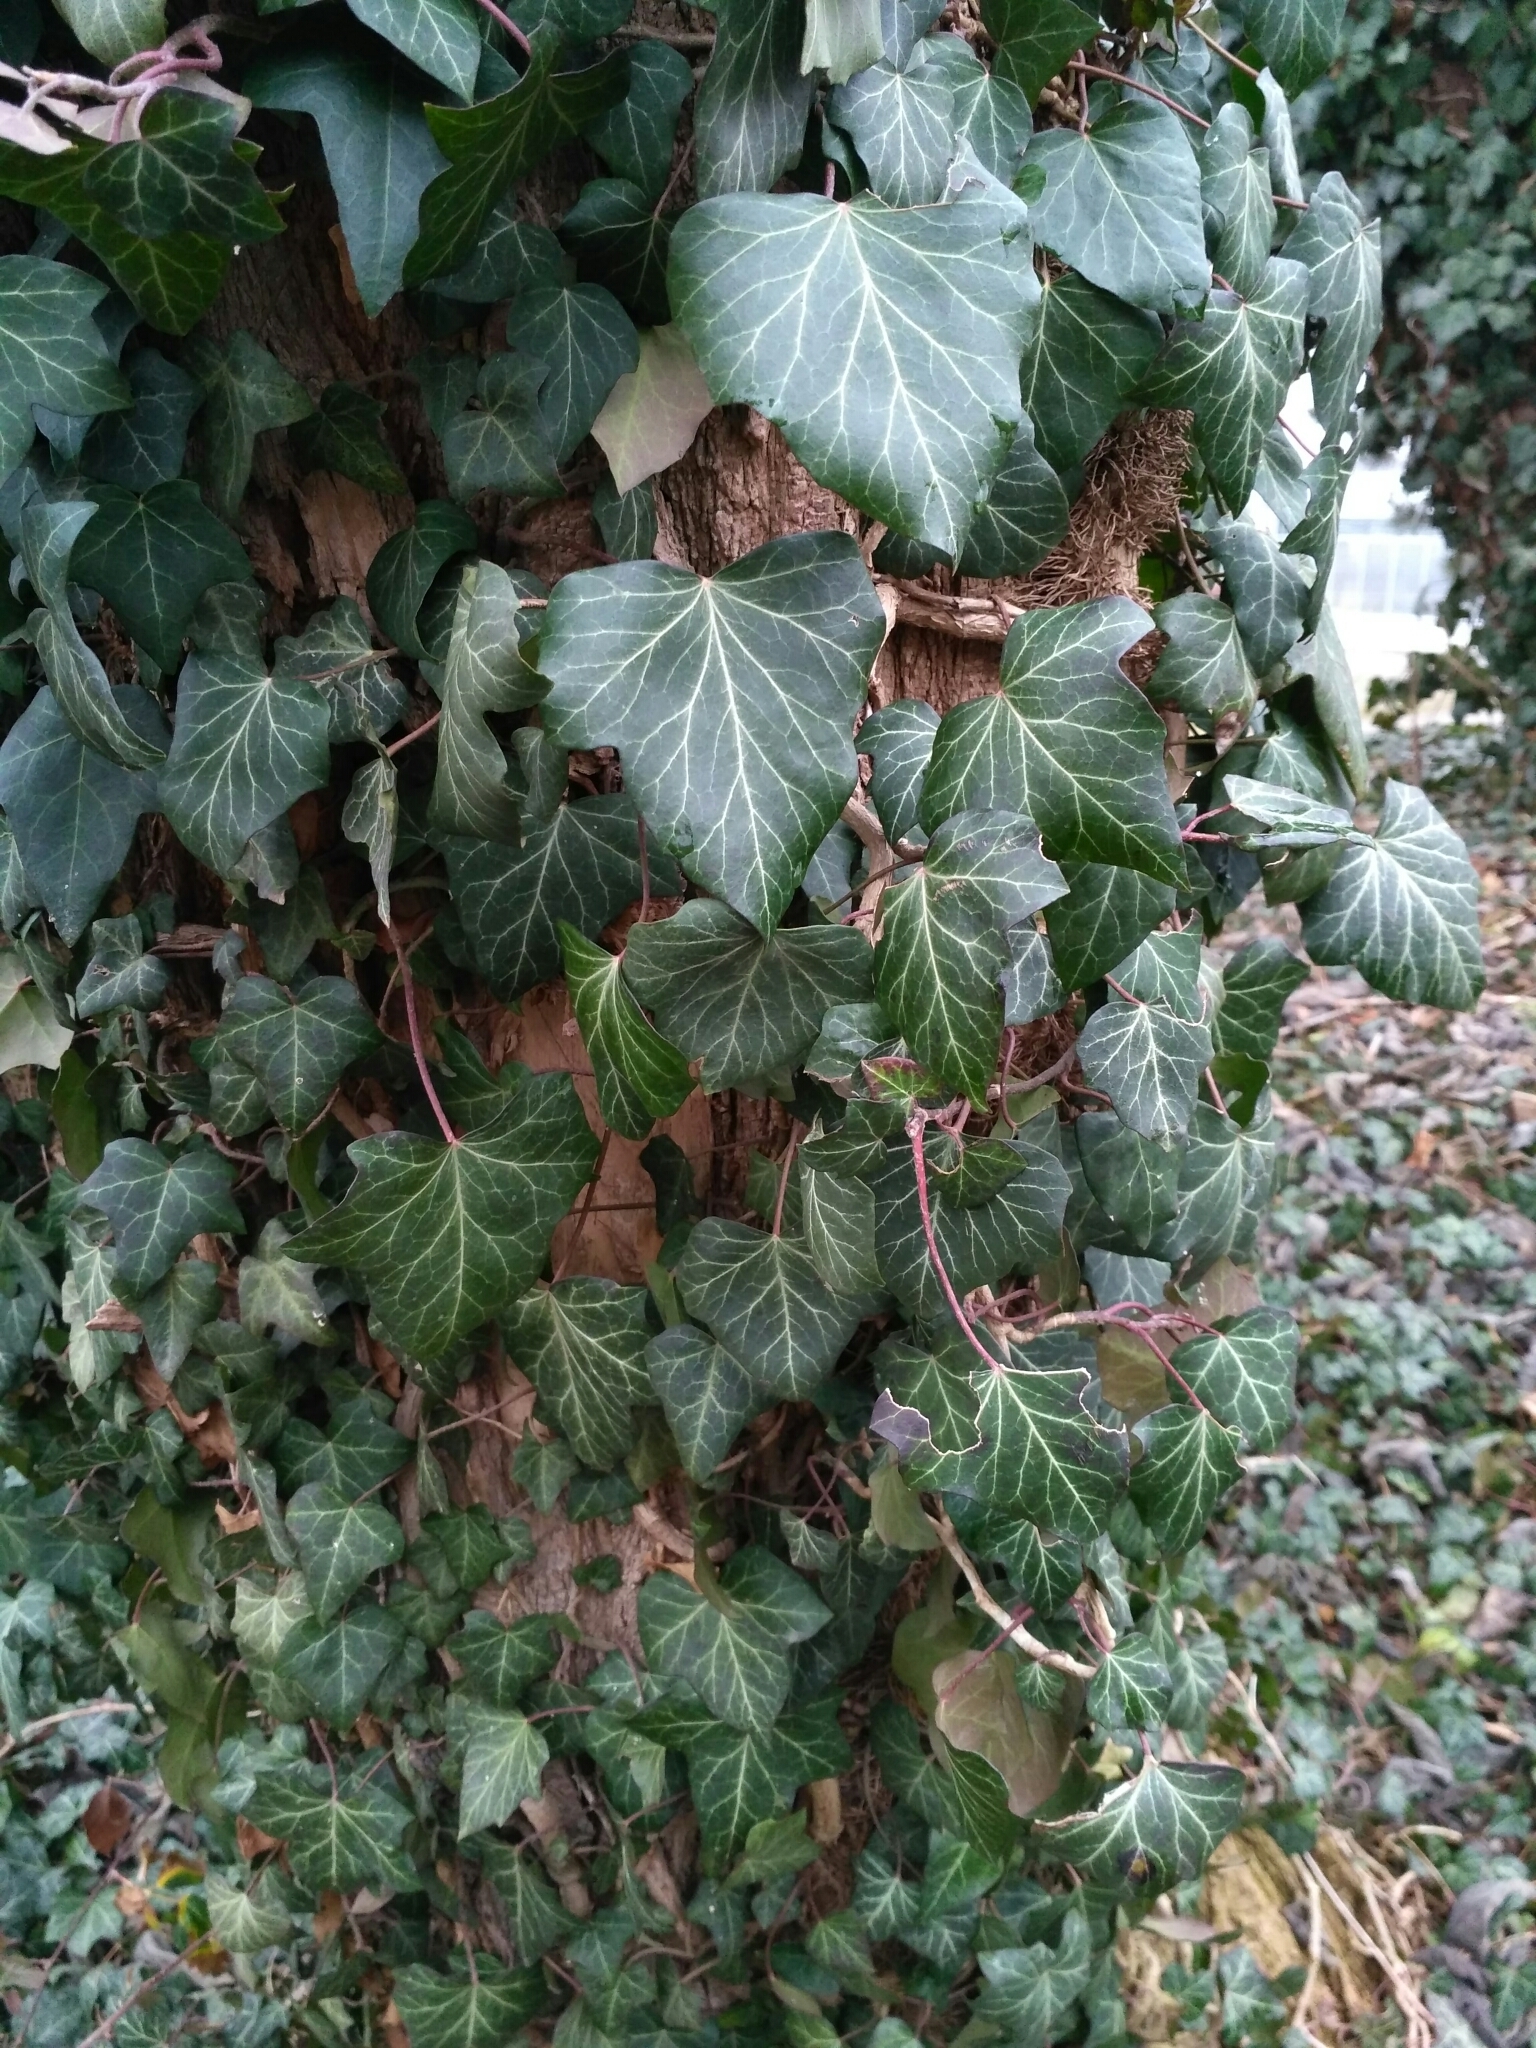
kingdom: Plantae
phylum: Tracheophyta
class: Magnoliopsida
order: Apiales
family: Araliaceae
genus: Hedera
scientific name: Hedera helix
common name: Ivy
